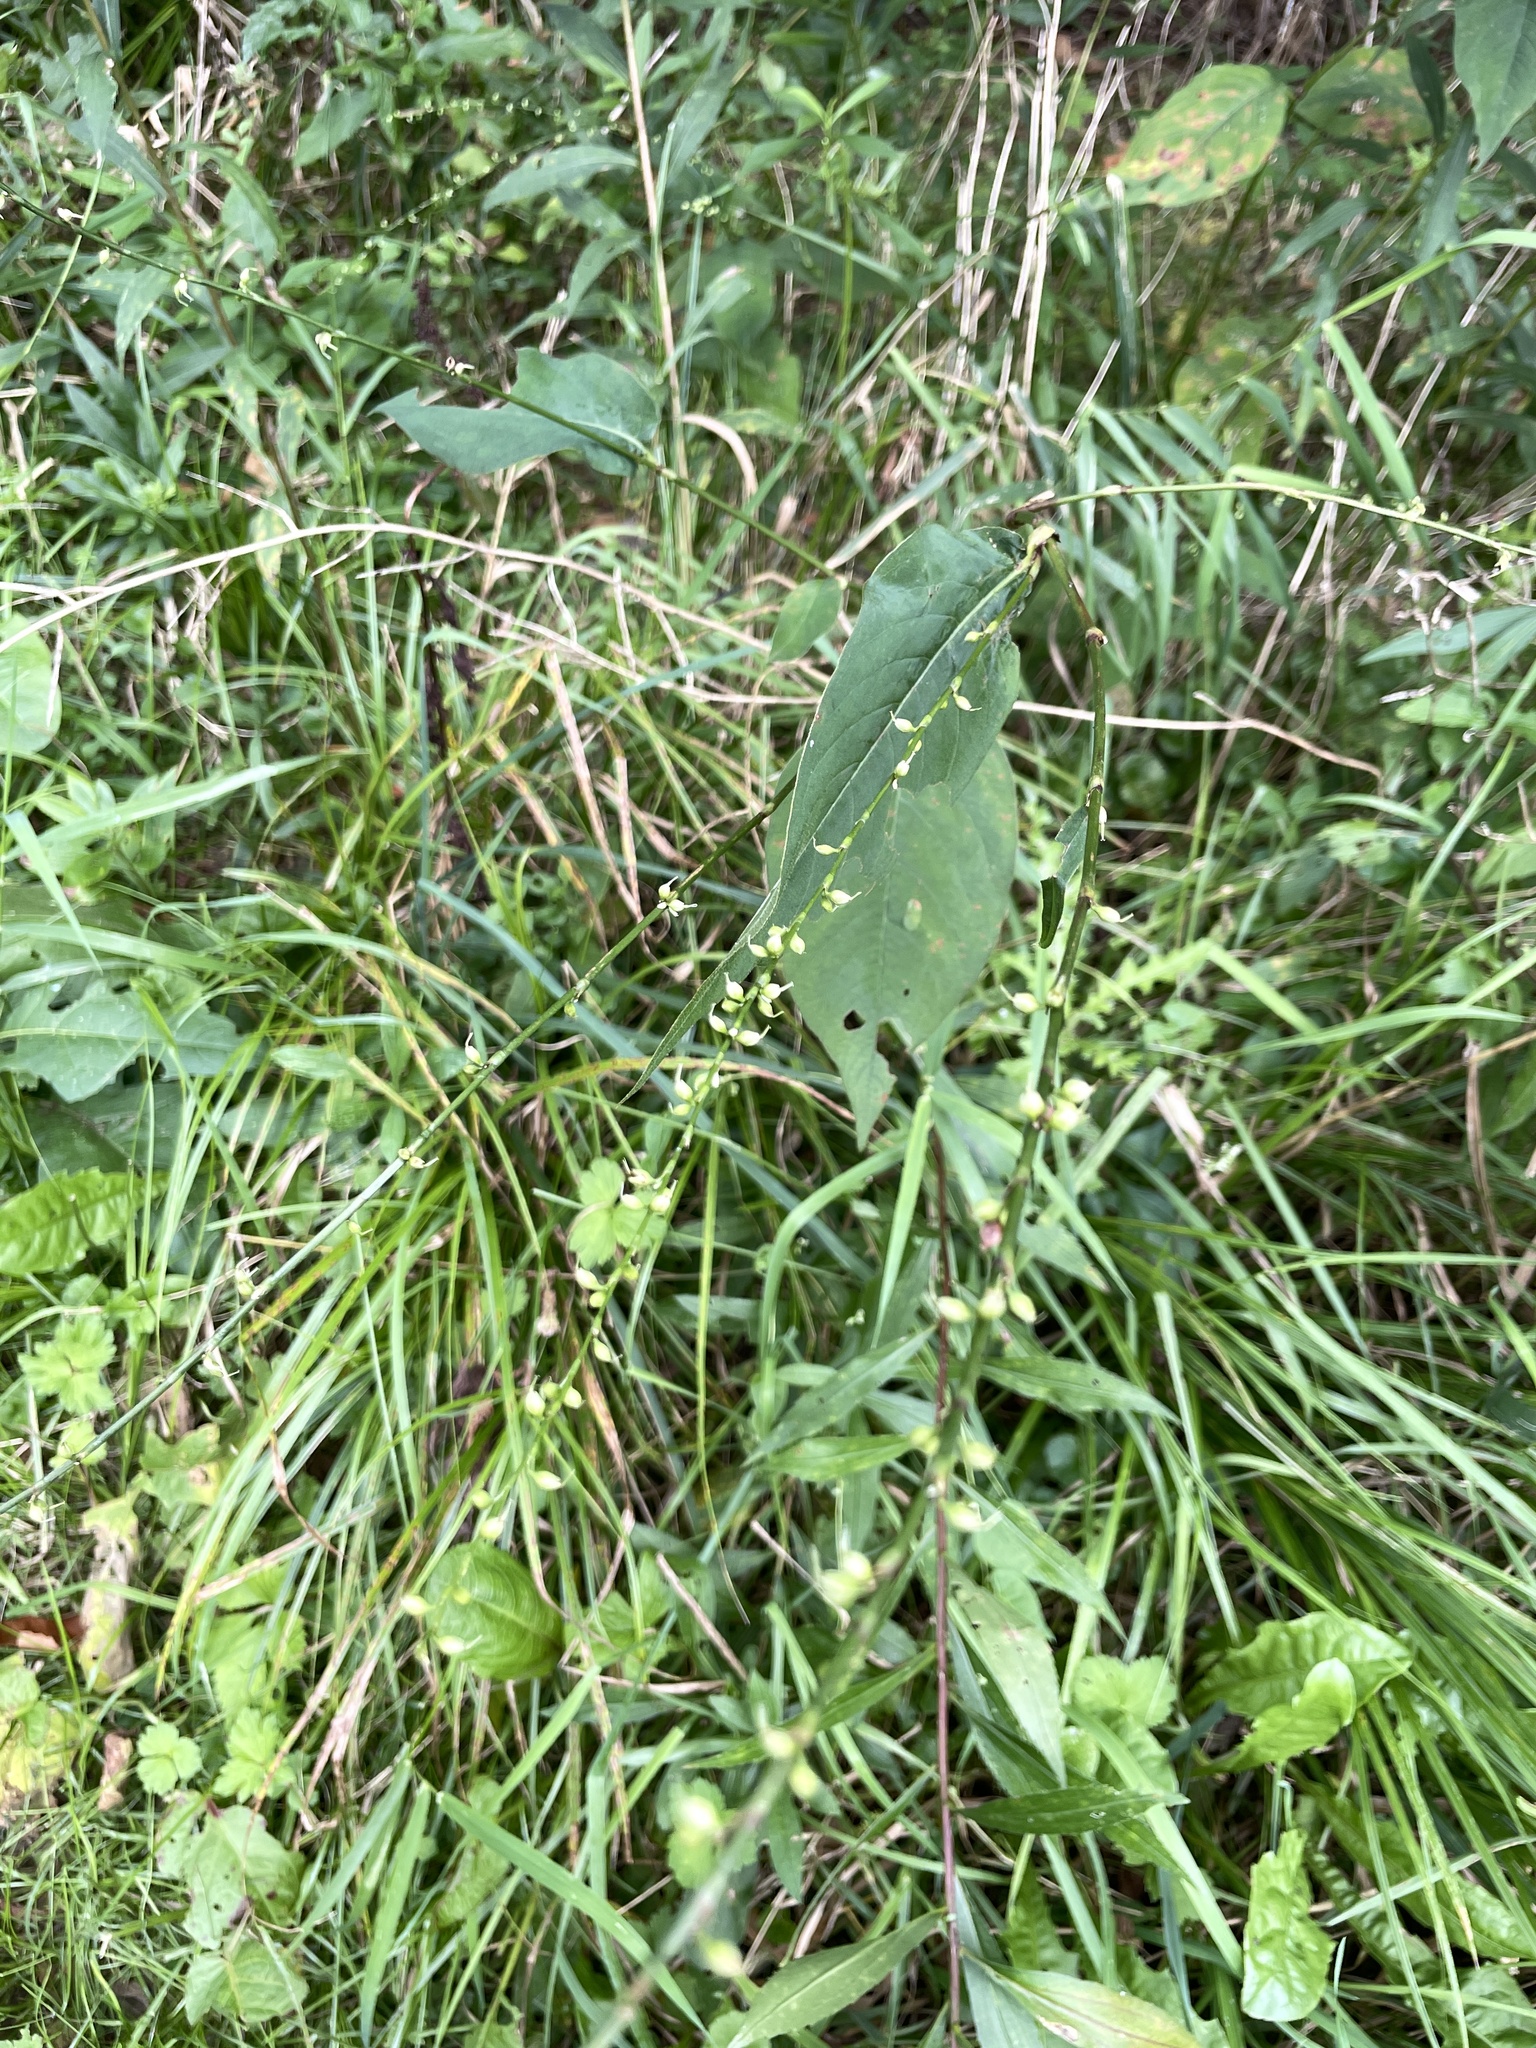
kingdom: Plantae
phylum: Tracheophyta
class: Magnoliopsida
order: Caryophyllales
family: Polygonaceae
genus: Persicaria
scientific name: Persicaria virginiana
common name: Jumpseed
